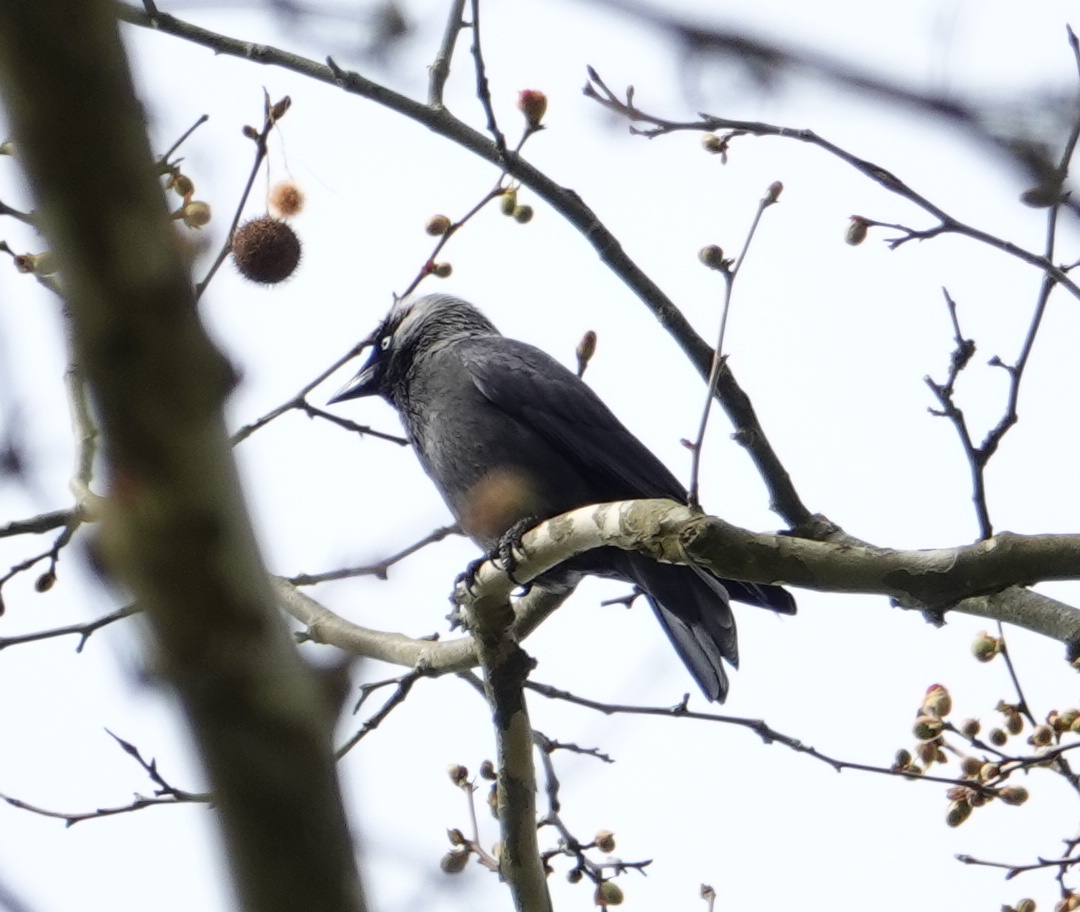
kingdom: Animalia
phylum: Chordata
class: Aves
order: Passeriformes
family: Corvidae
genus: Coloeus
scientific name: Coloeus monedula
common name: Western jackdaw
